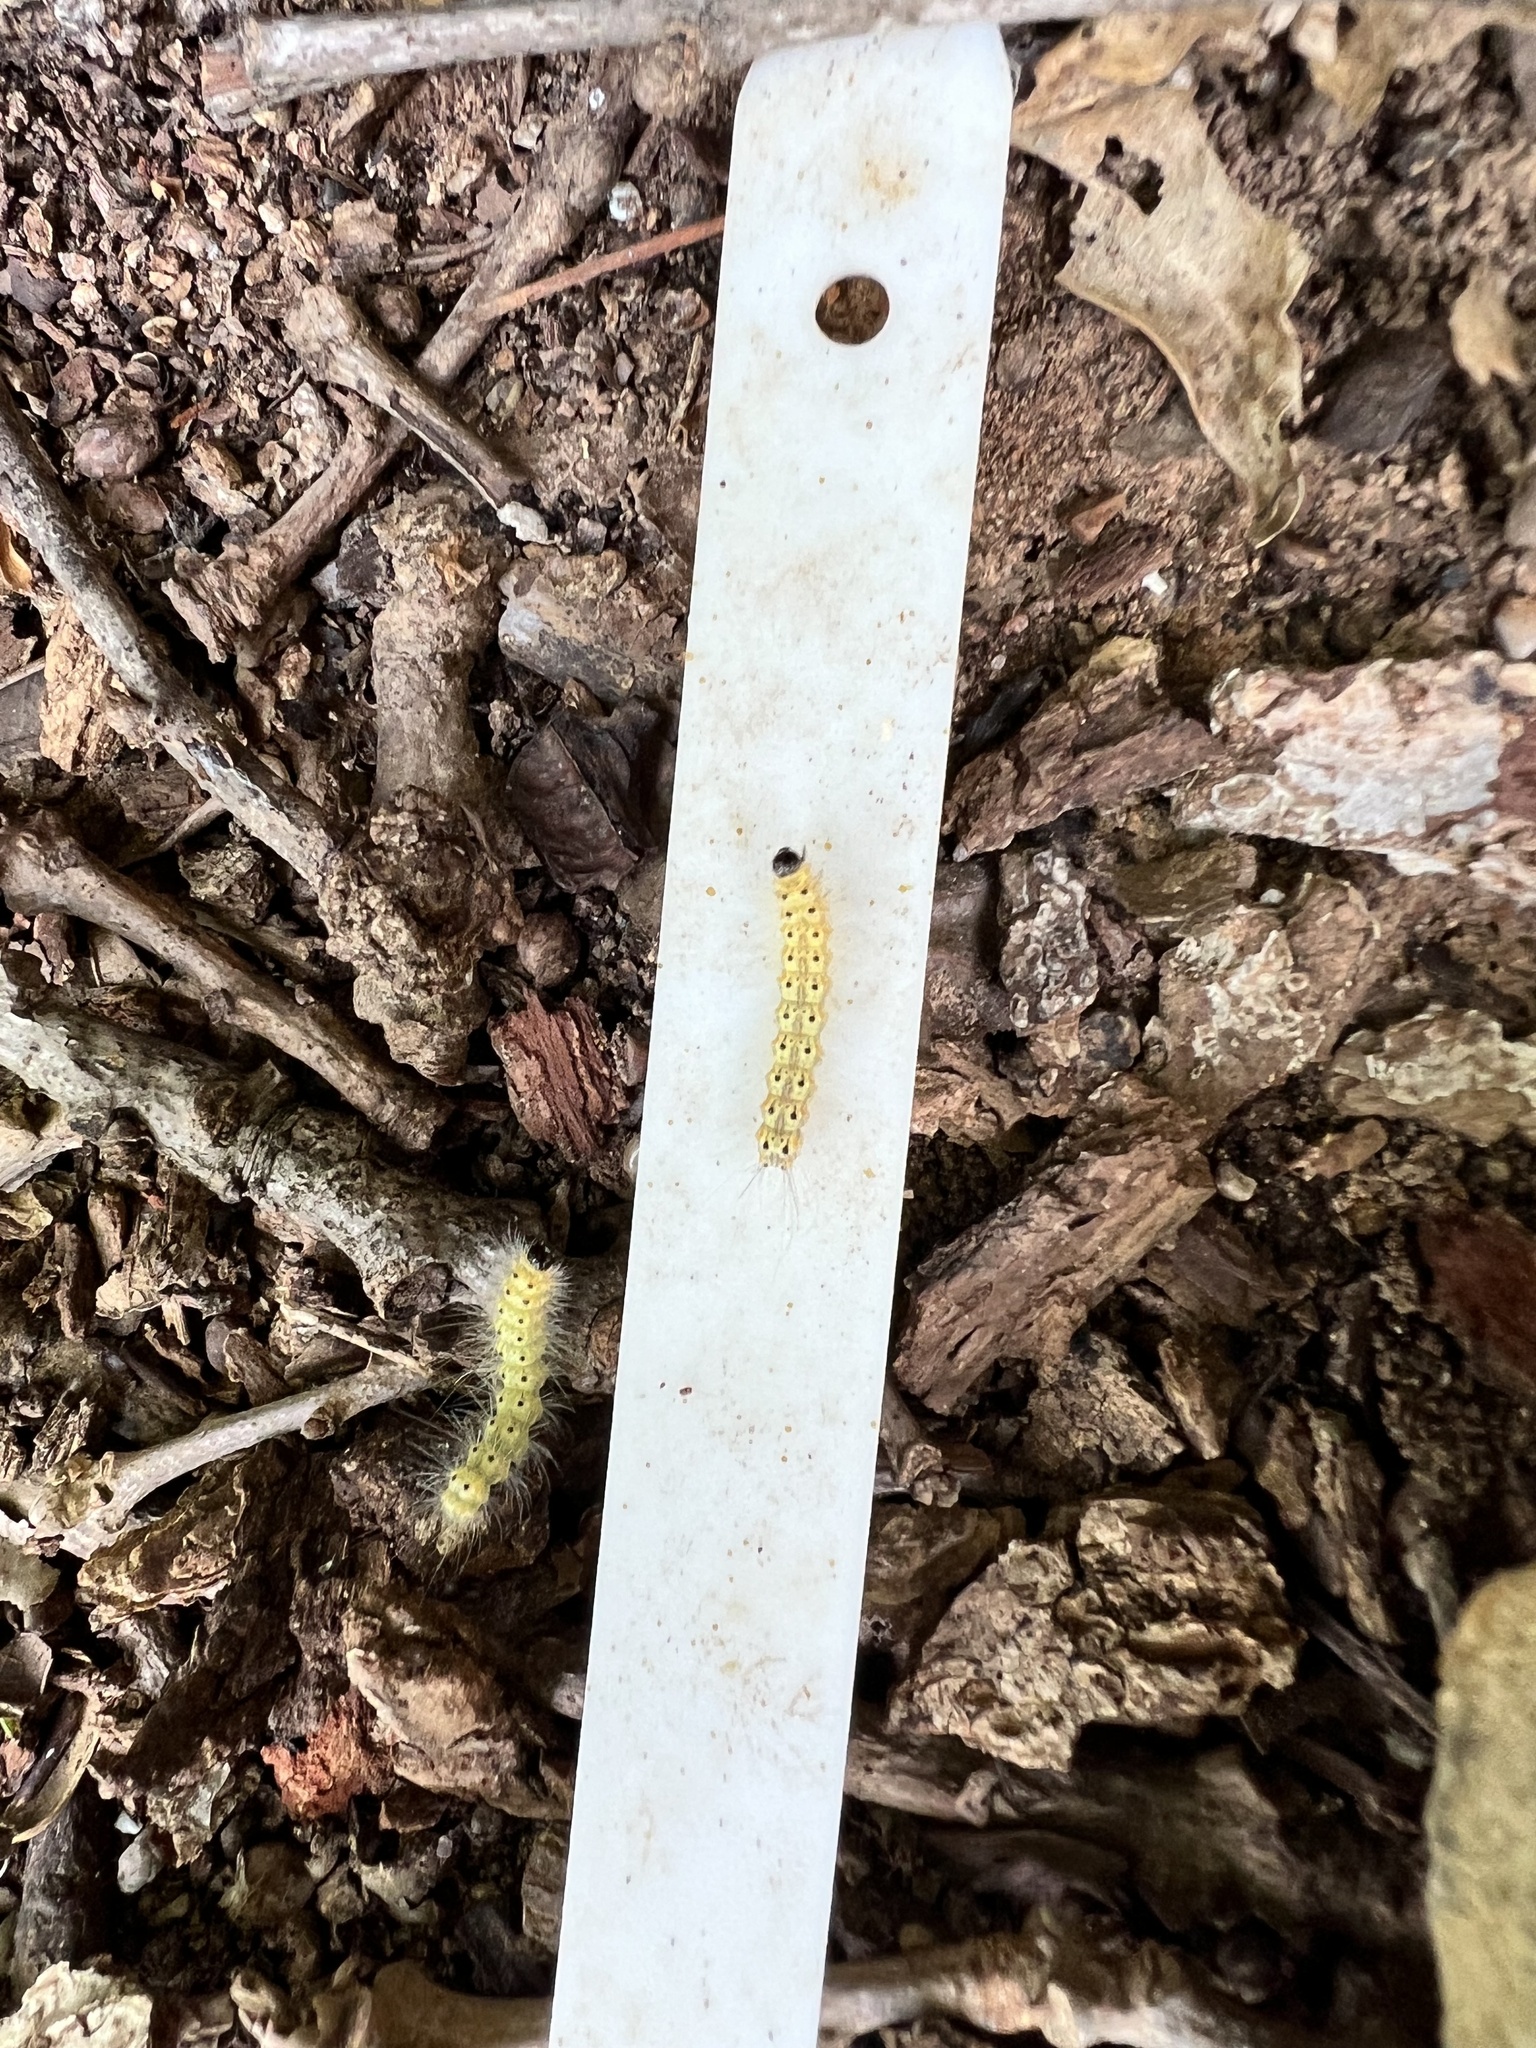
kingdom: Animalia
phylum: Arthropoda
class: Insecta
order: Lepidoptera
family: Erebidae
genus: Hyphantria
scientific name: Hyphantria cunea
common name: American white moth
